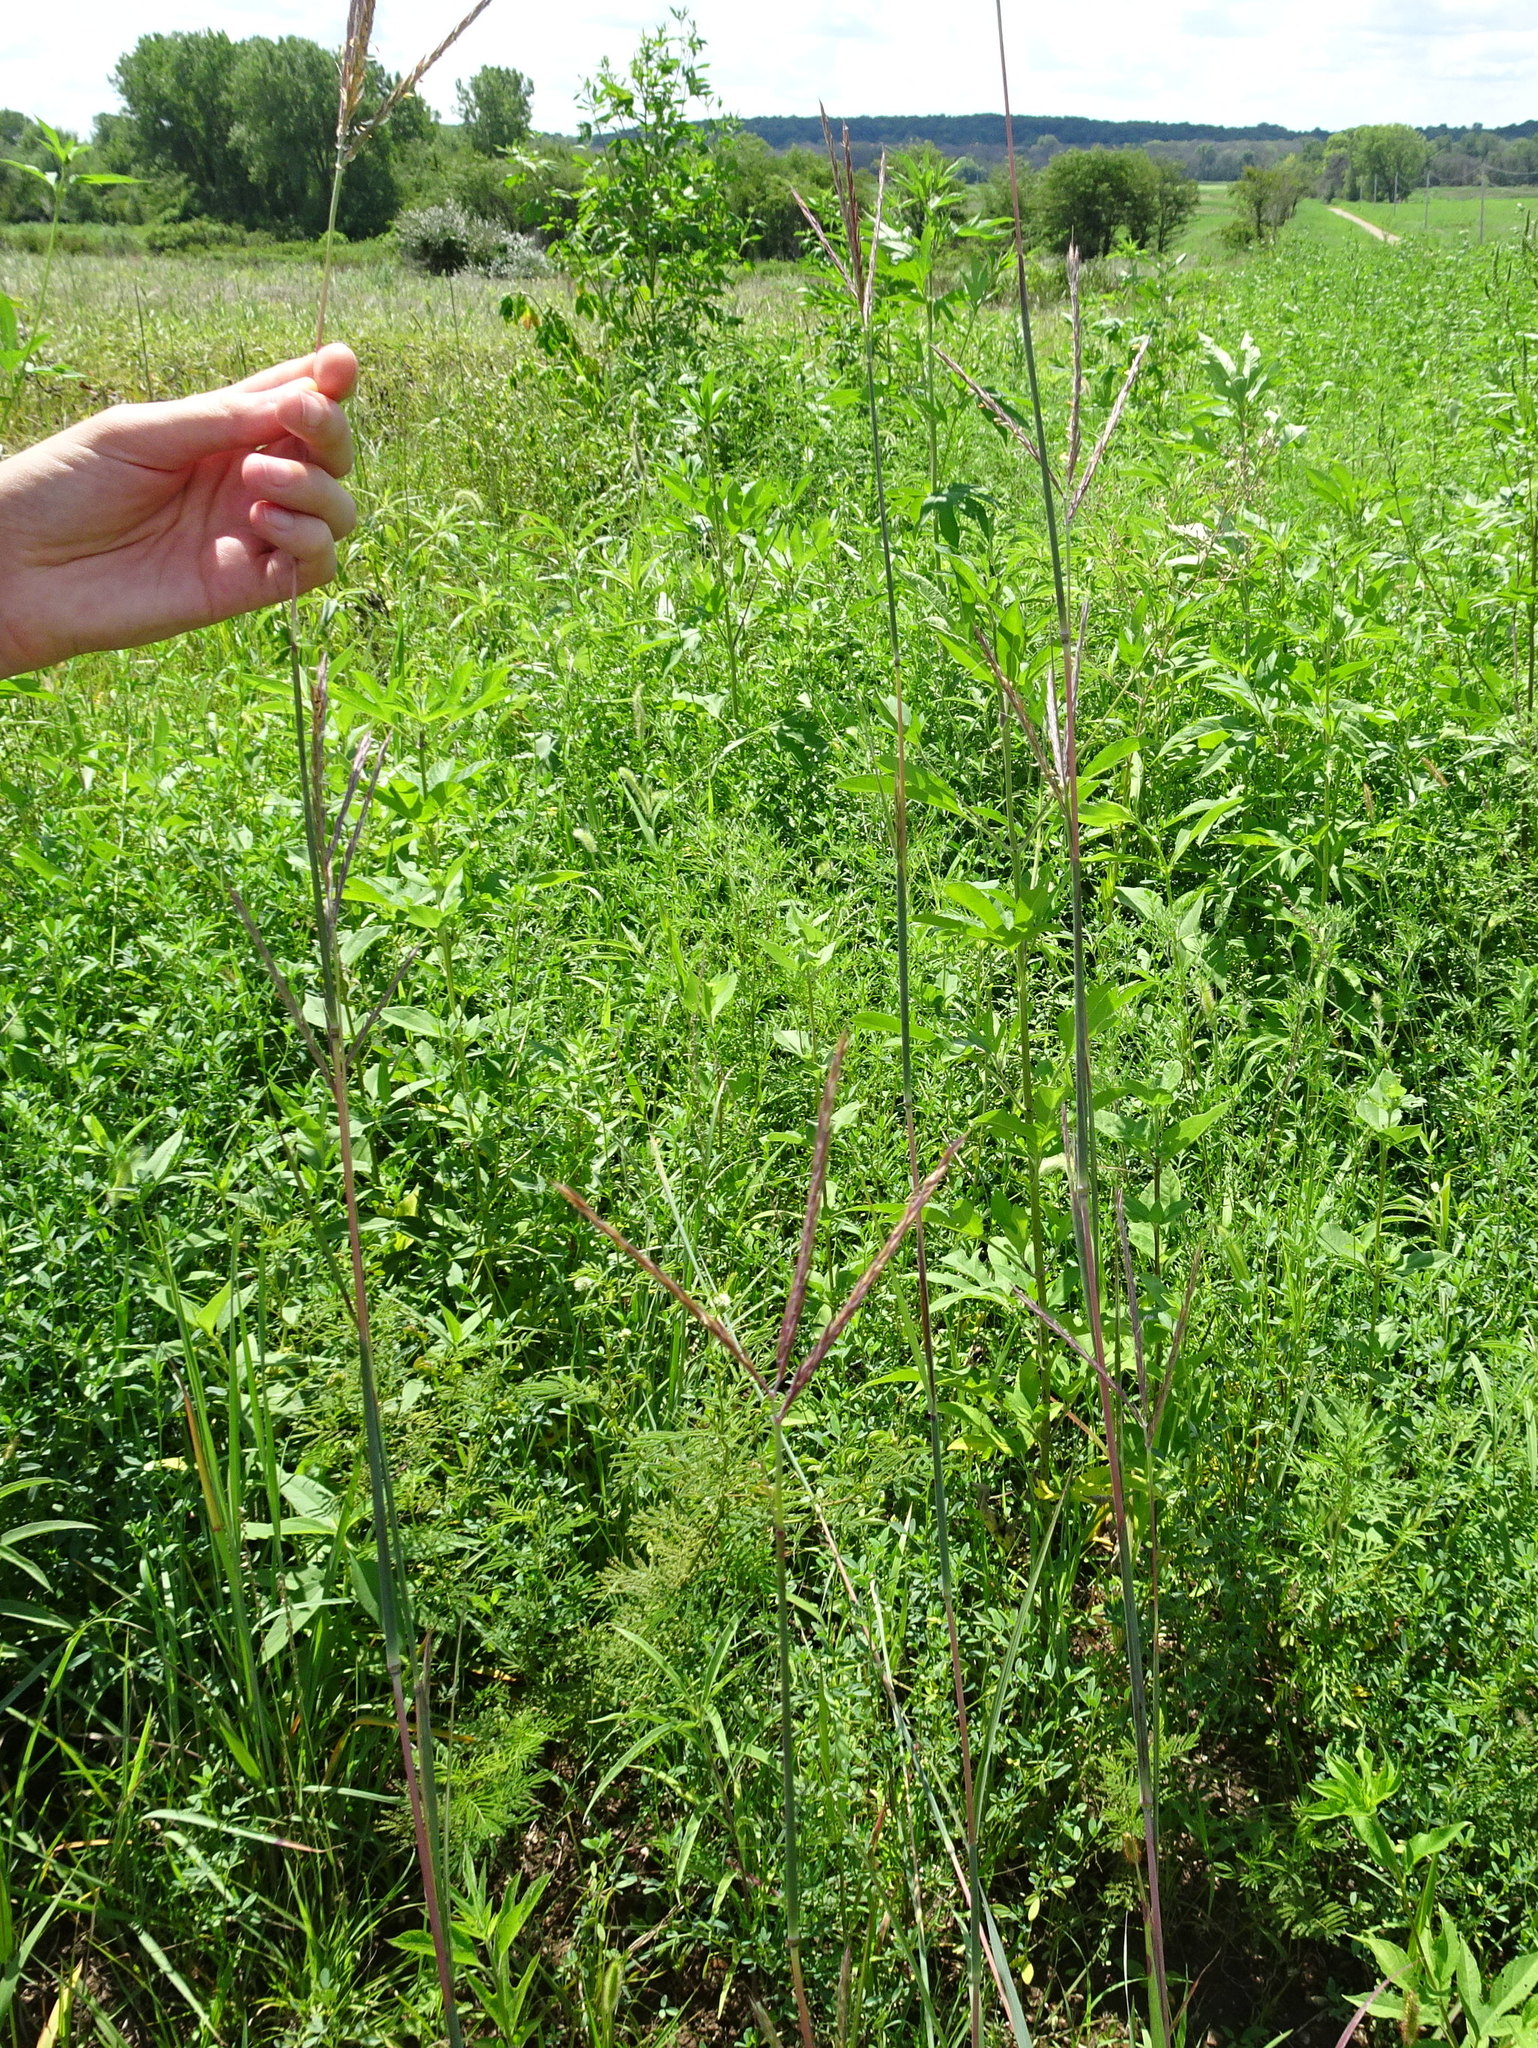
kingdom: Plantae
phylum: Tracheophyta
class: Liliopsida
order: Poales
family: Poaceae
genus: Andropogon
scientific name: Andropogon gerardi
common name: Big bluestem
